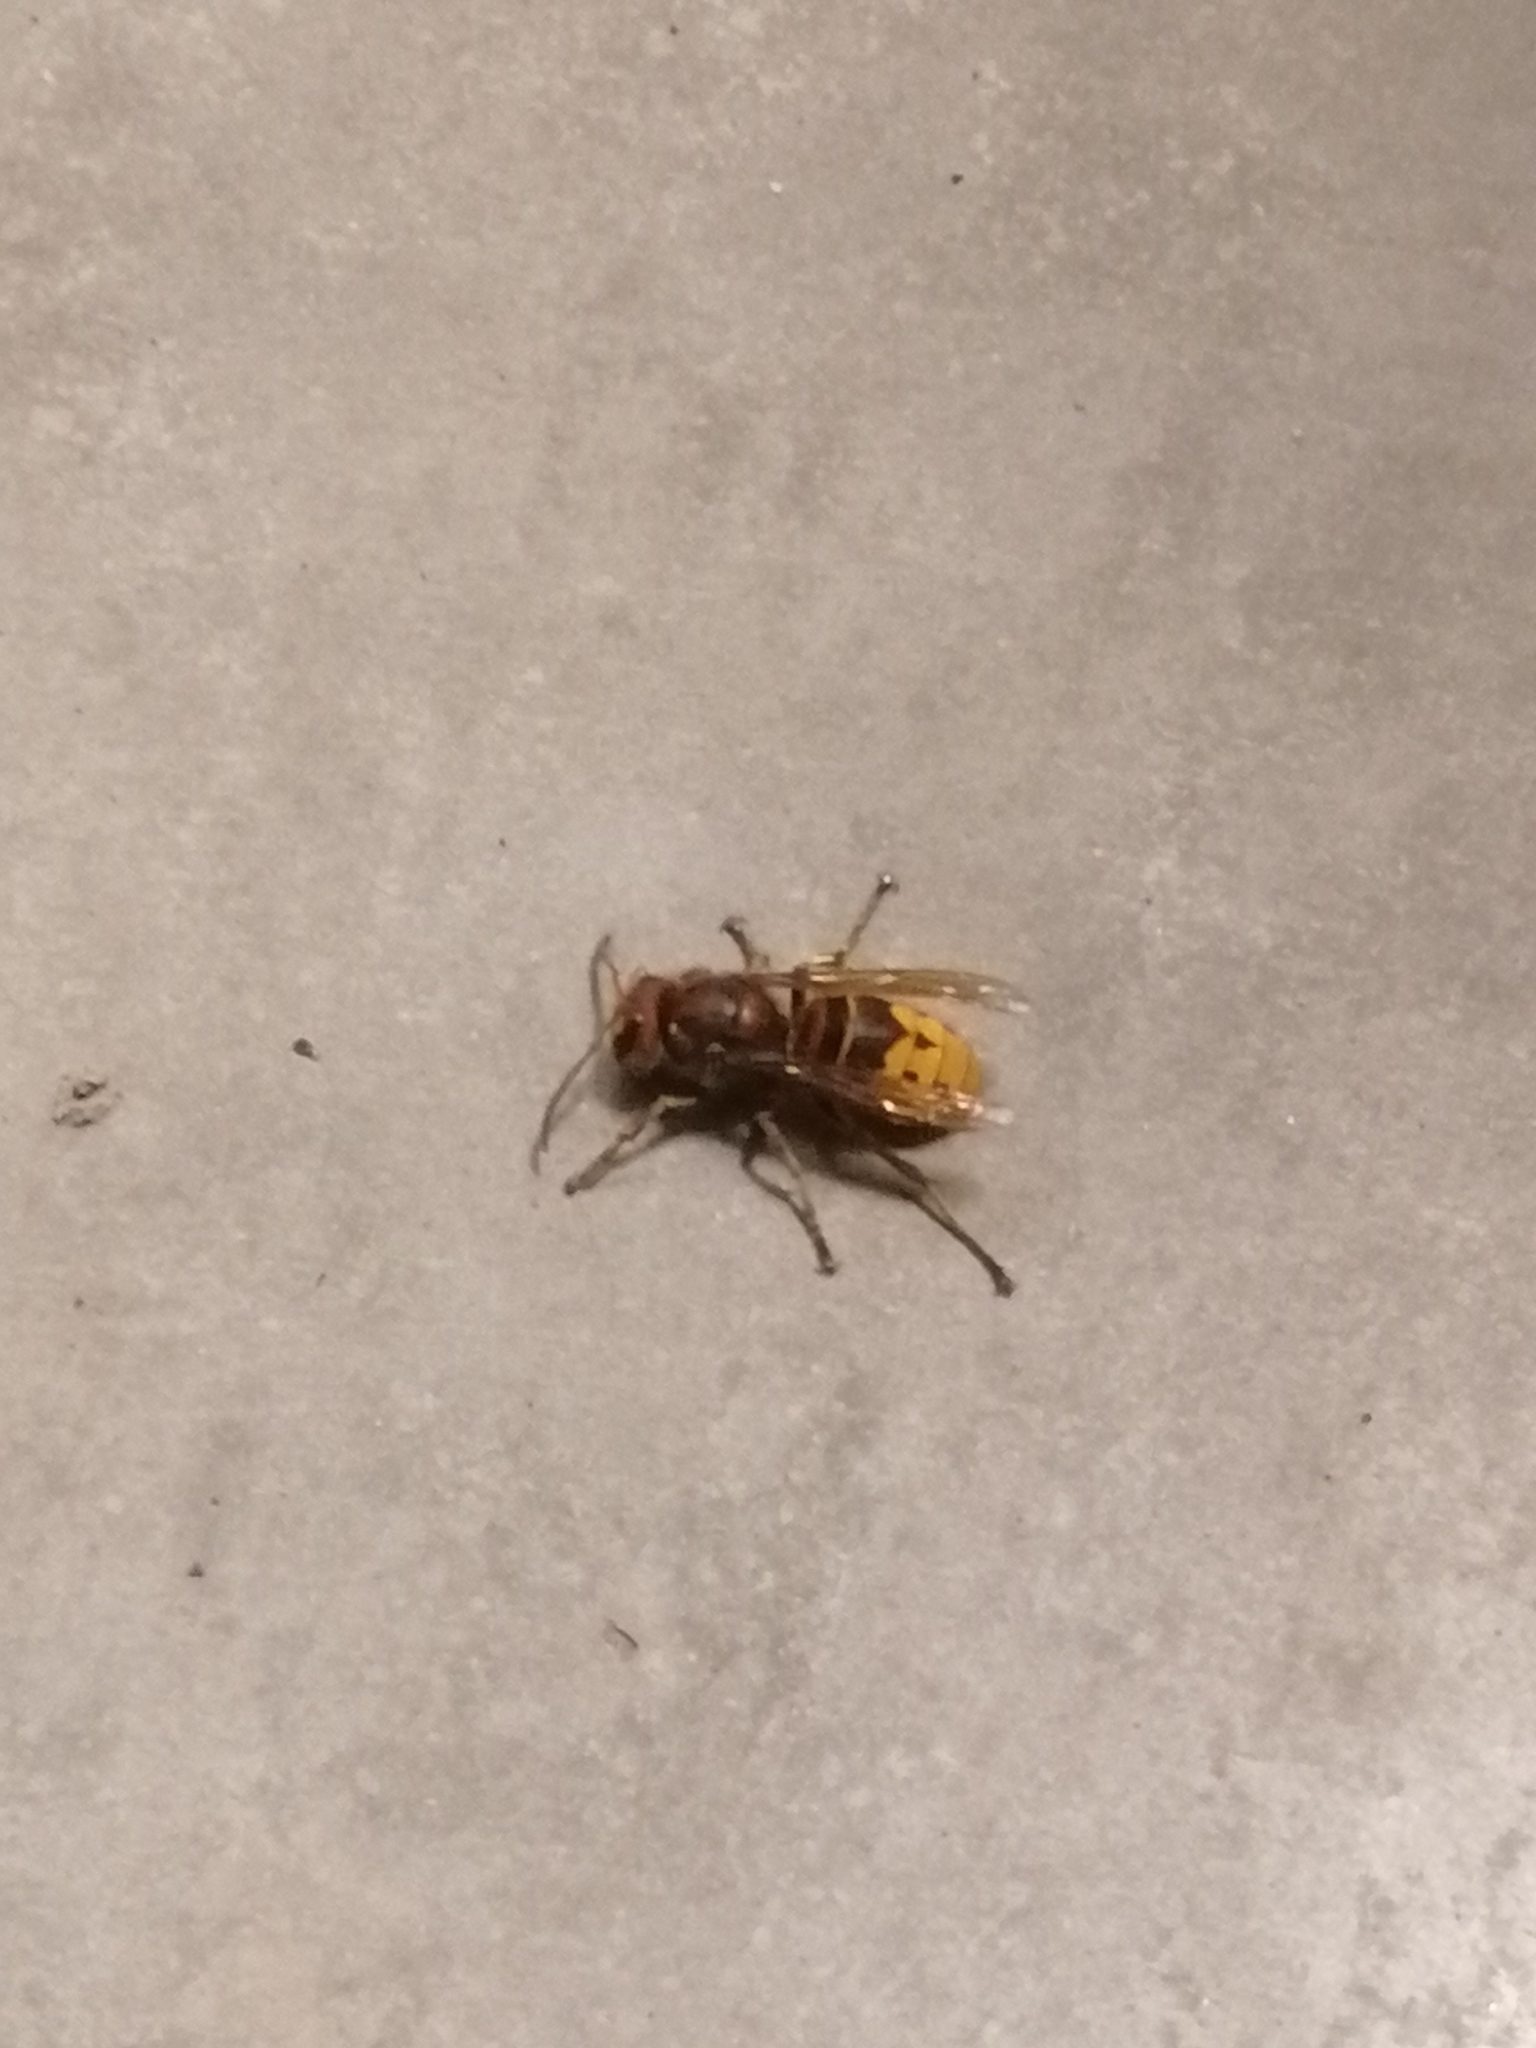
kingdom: Animalia
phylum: Arthropoda
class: Insecta
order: Hymenoptera
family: Vespidae
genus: Vespa
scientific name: Vespa crabro
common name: Hornet
